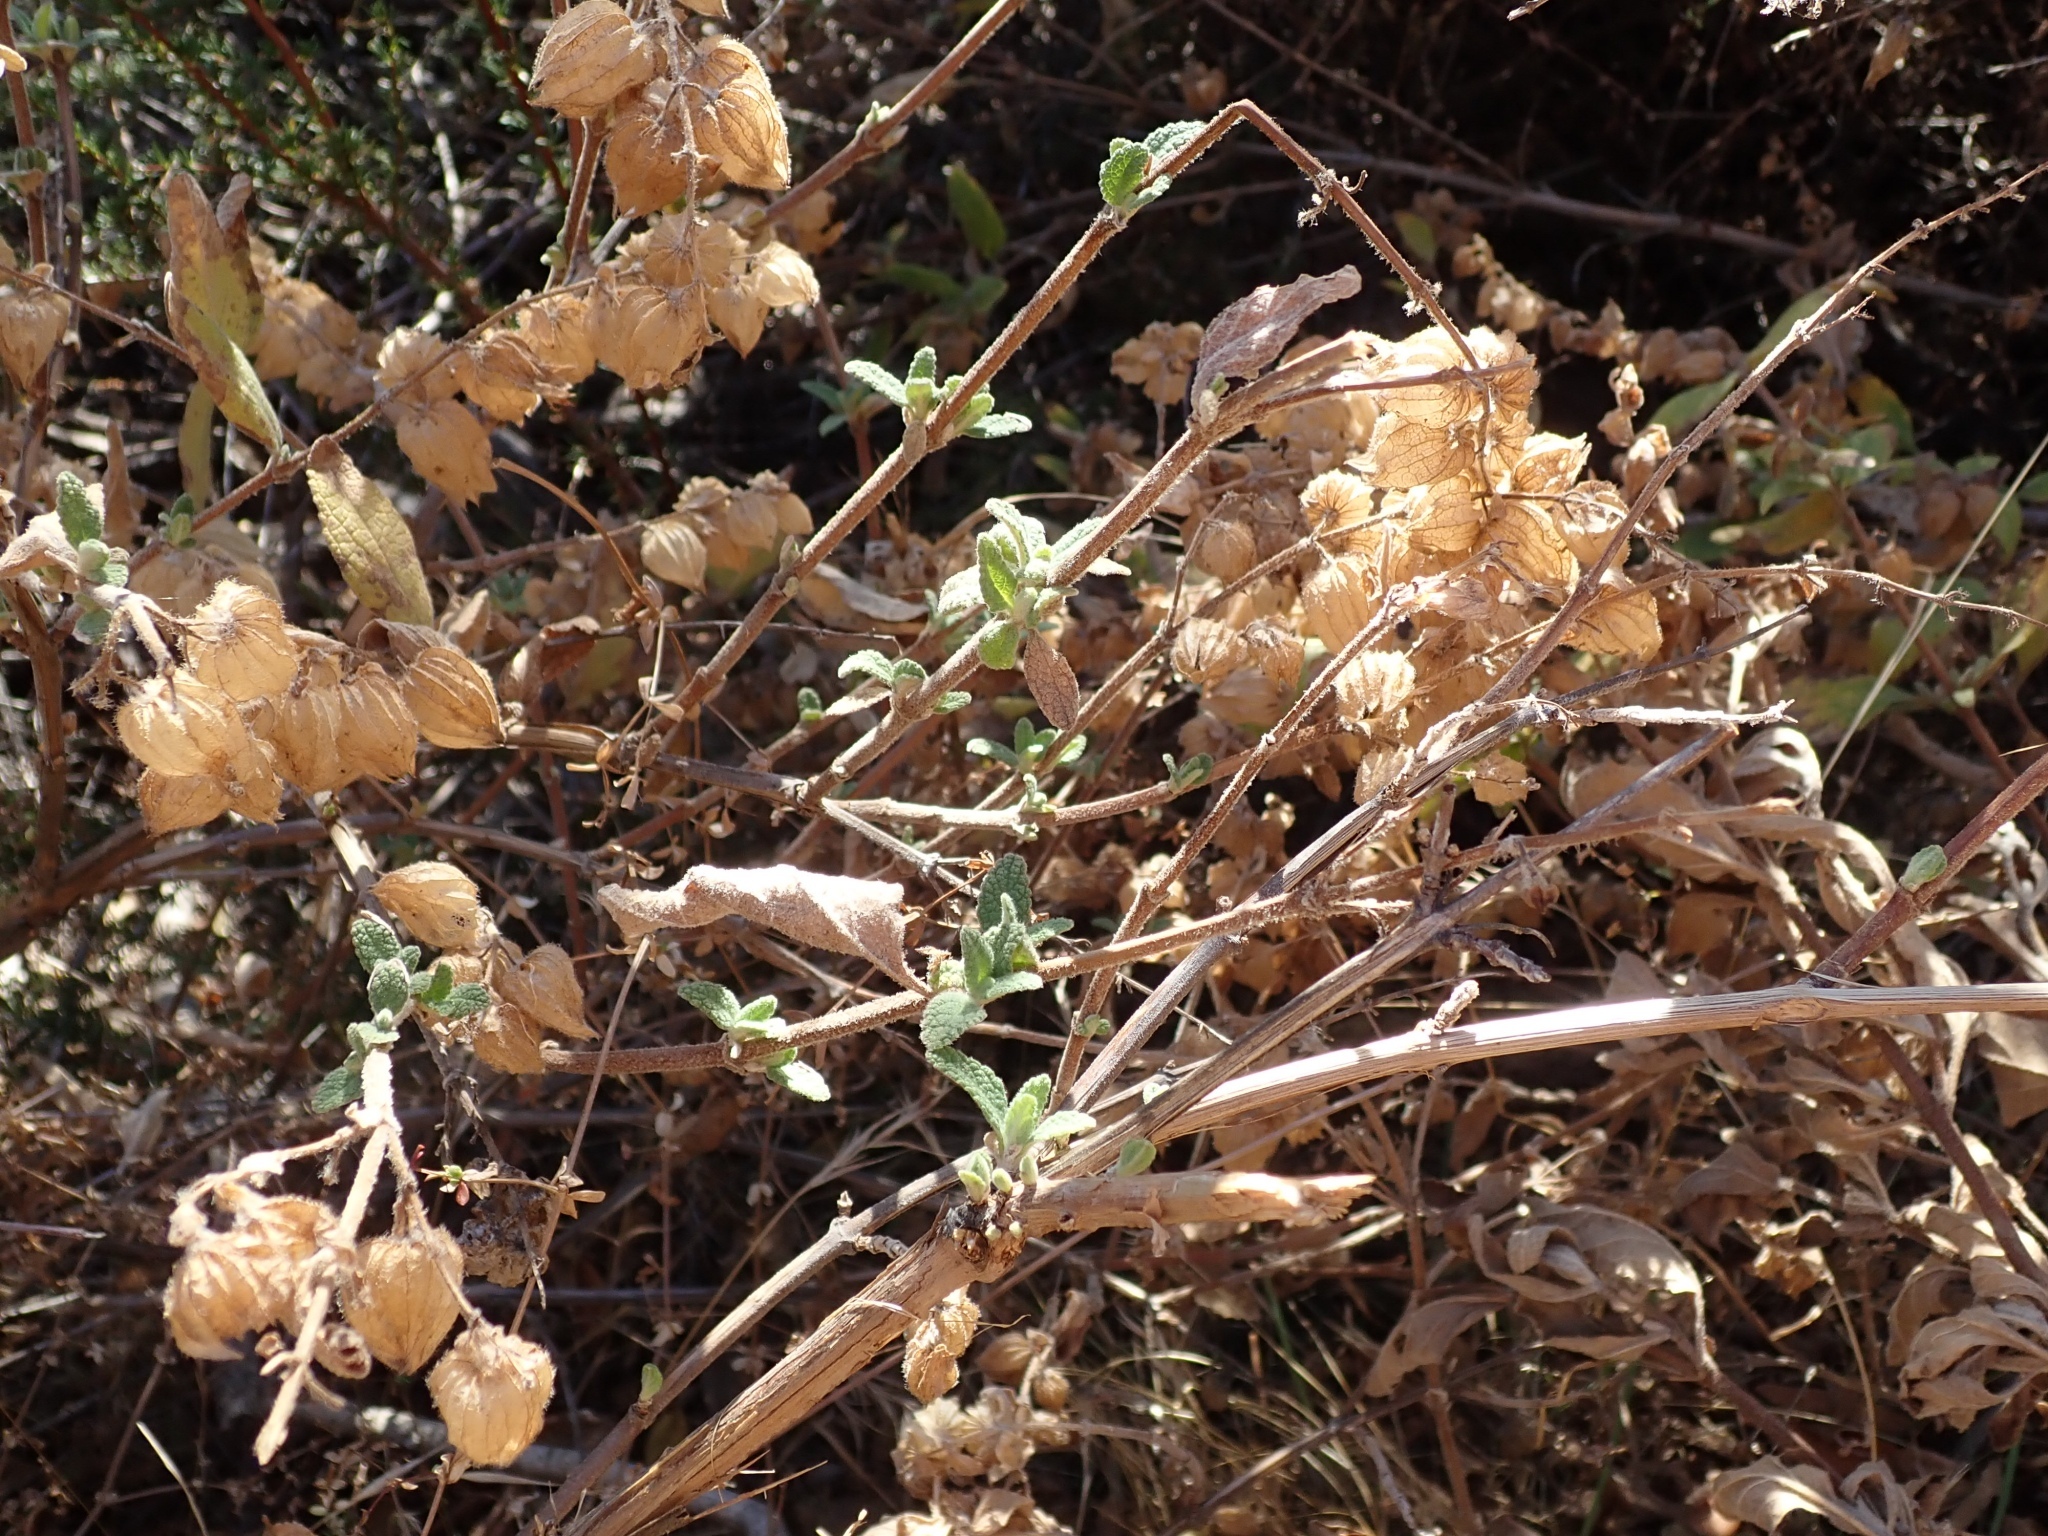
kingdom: Plantae
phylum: Tracheophyta
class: Magnoliopsida
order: Lamiales
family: Lamiaceae
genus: Lepechinia
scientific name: Lepechinia calycina
